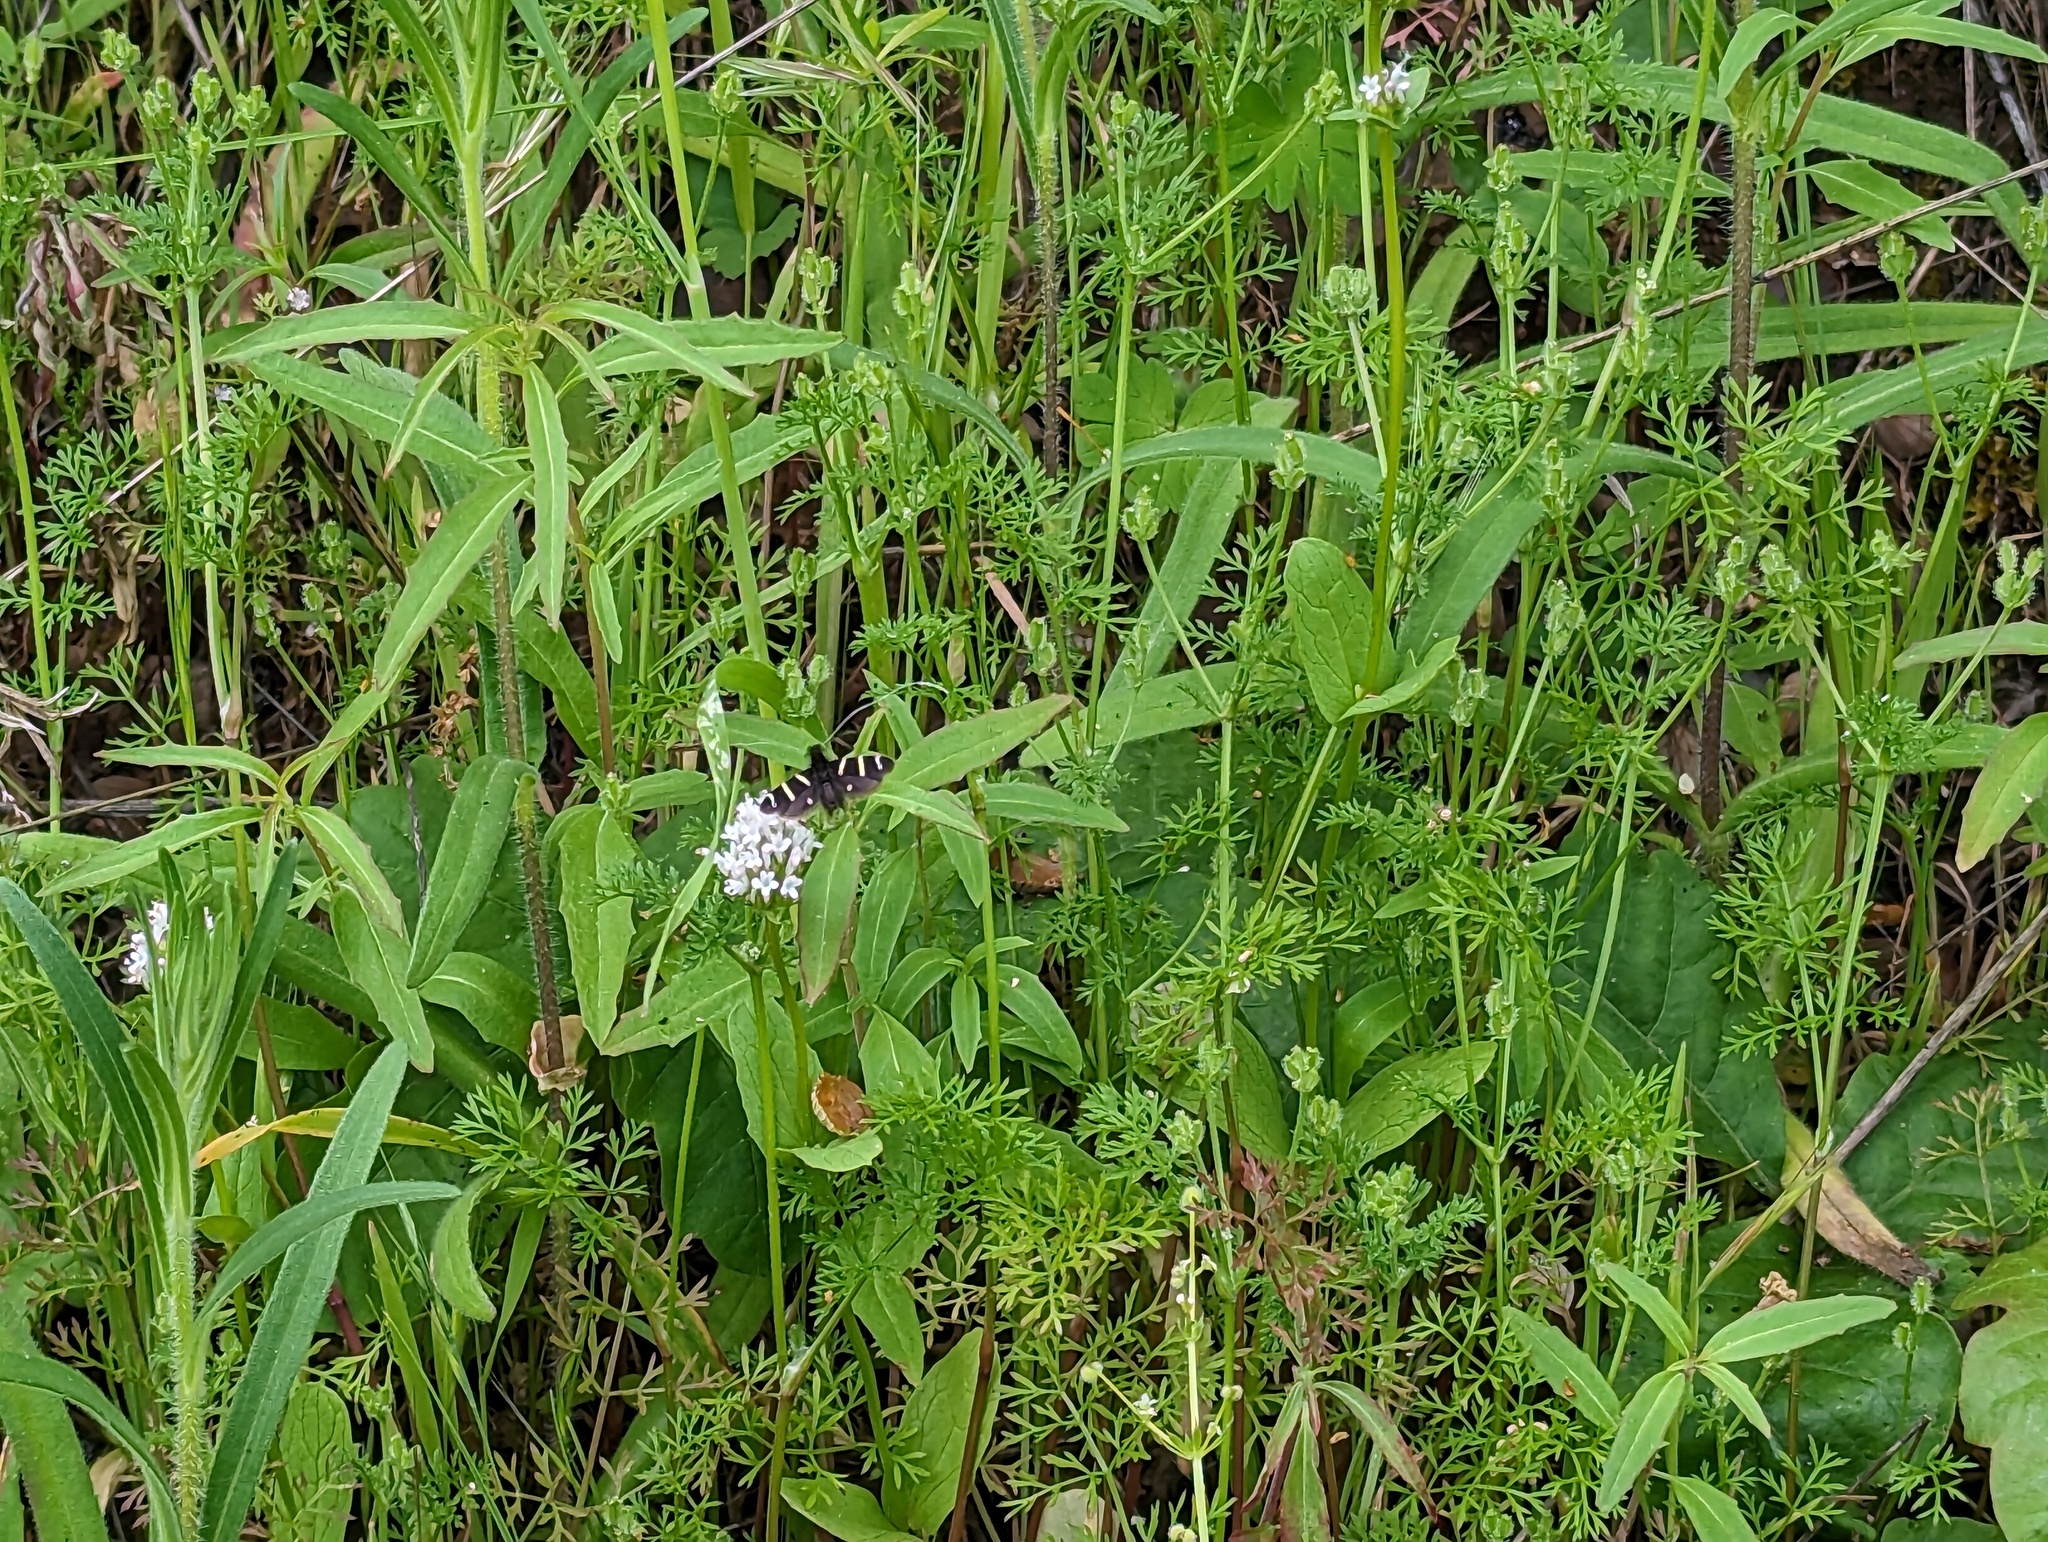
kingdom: Animalia
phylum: Arthropoda
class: Insecta
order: Lepidoptera
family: Adelidae
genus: Adela
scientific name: Adela trigrapha
